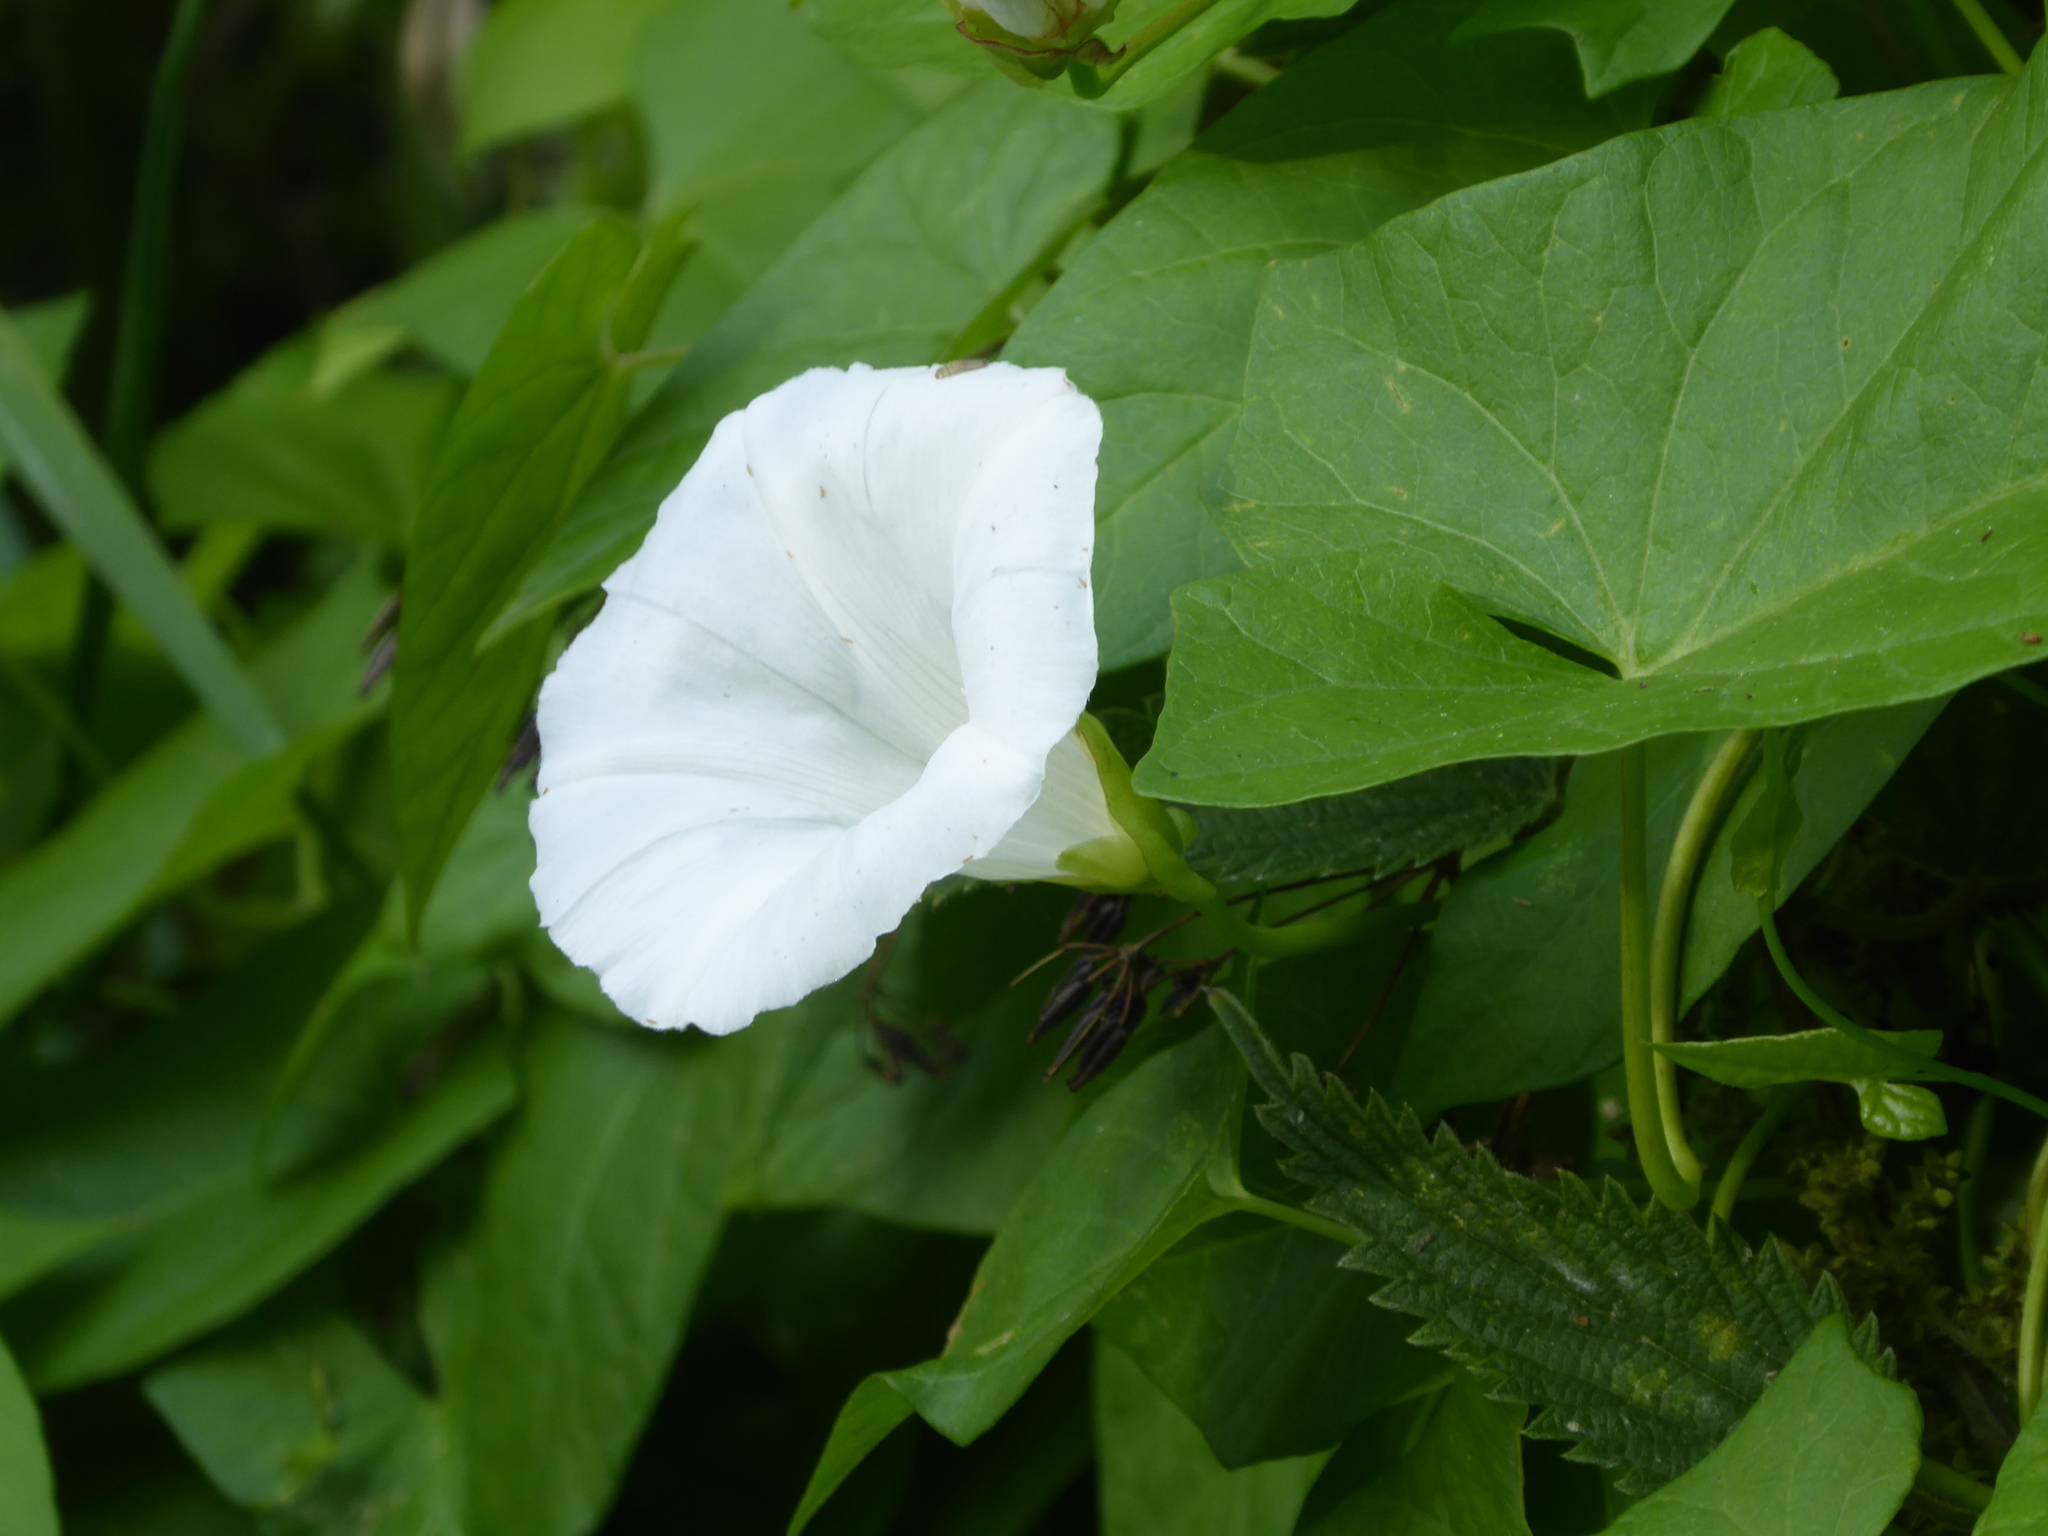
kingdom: Plantae
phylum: Tracheophyta
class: Magnoliopsida
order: Solanales
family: Convolvulaceae
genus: Calystegia
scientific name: Calystegia sepium
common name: Hedge bindweed
